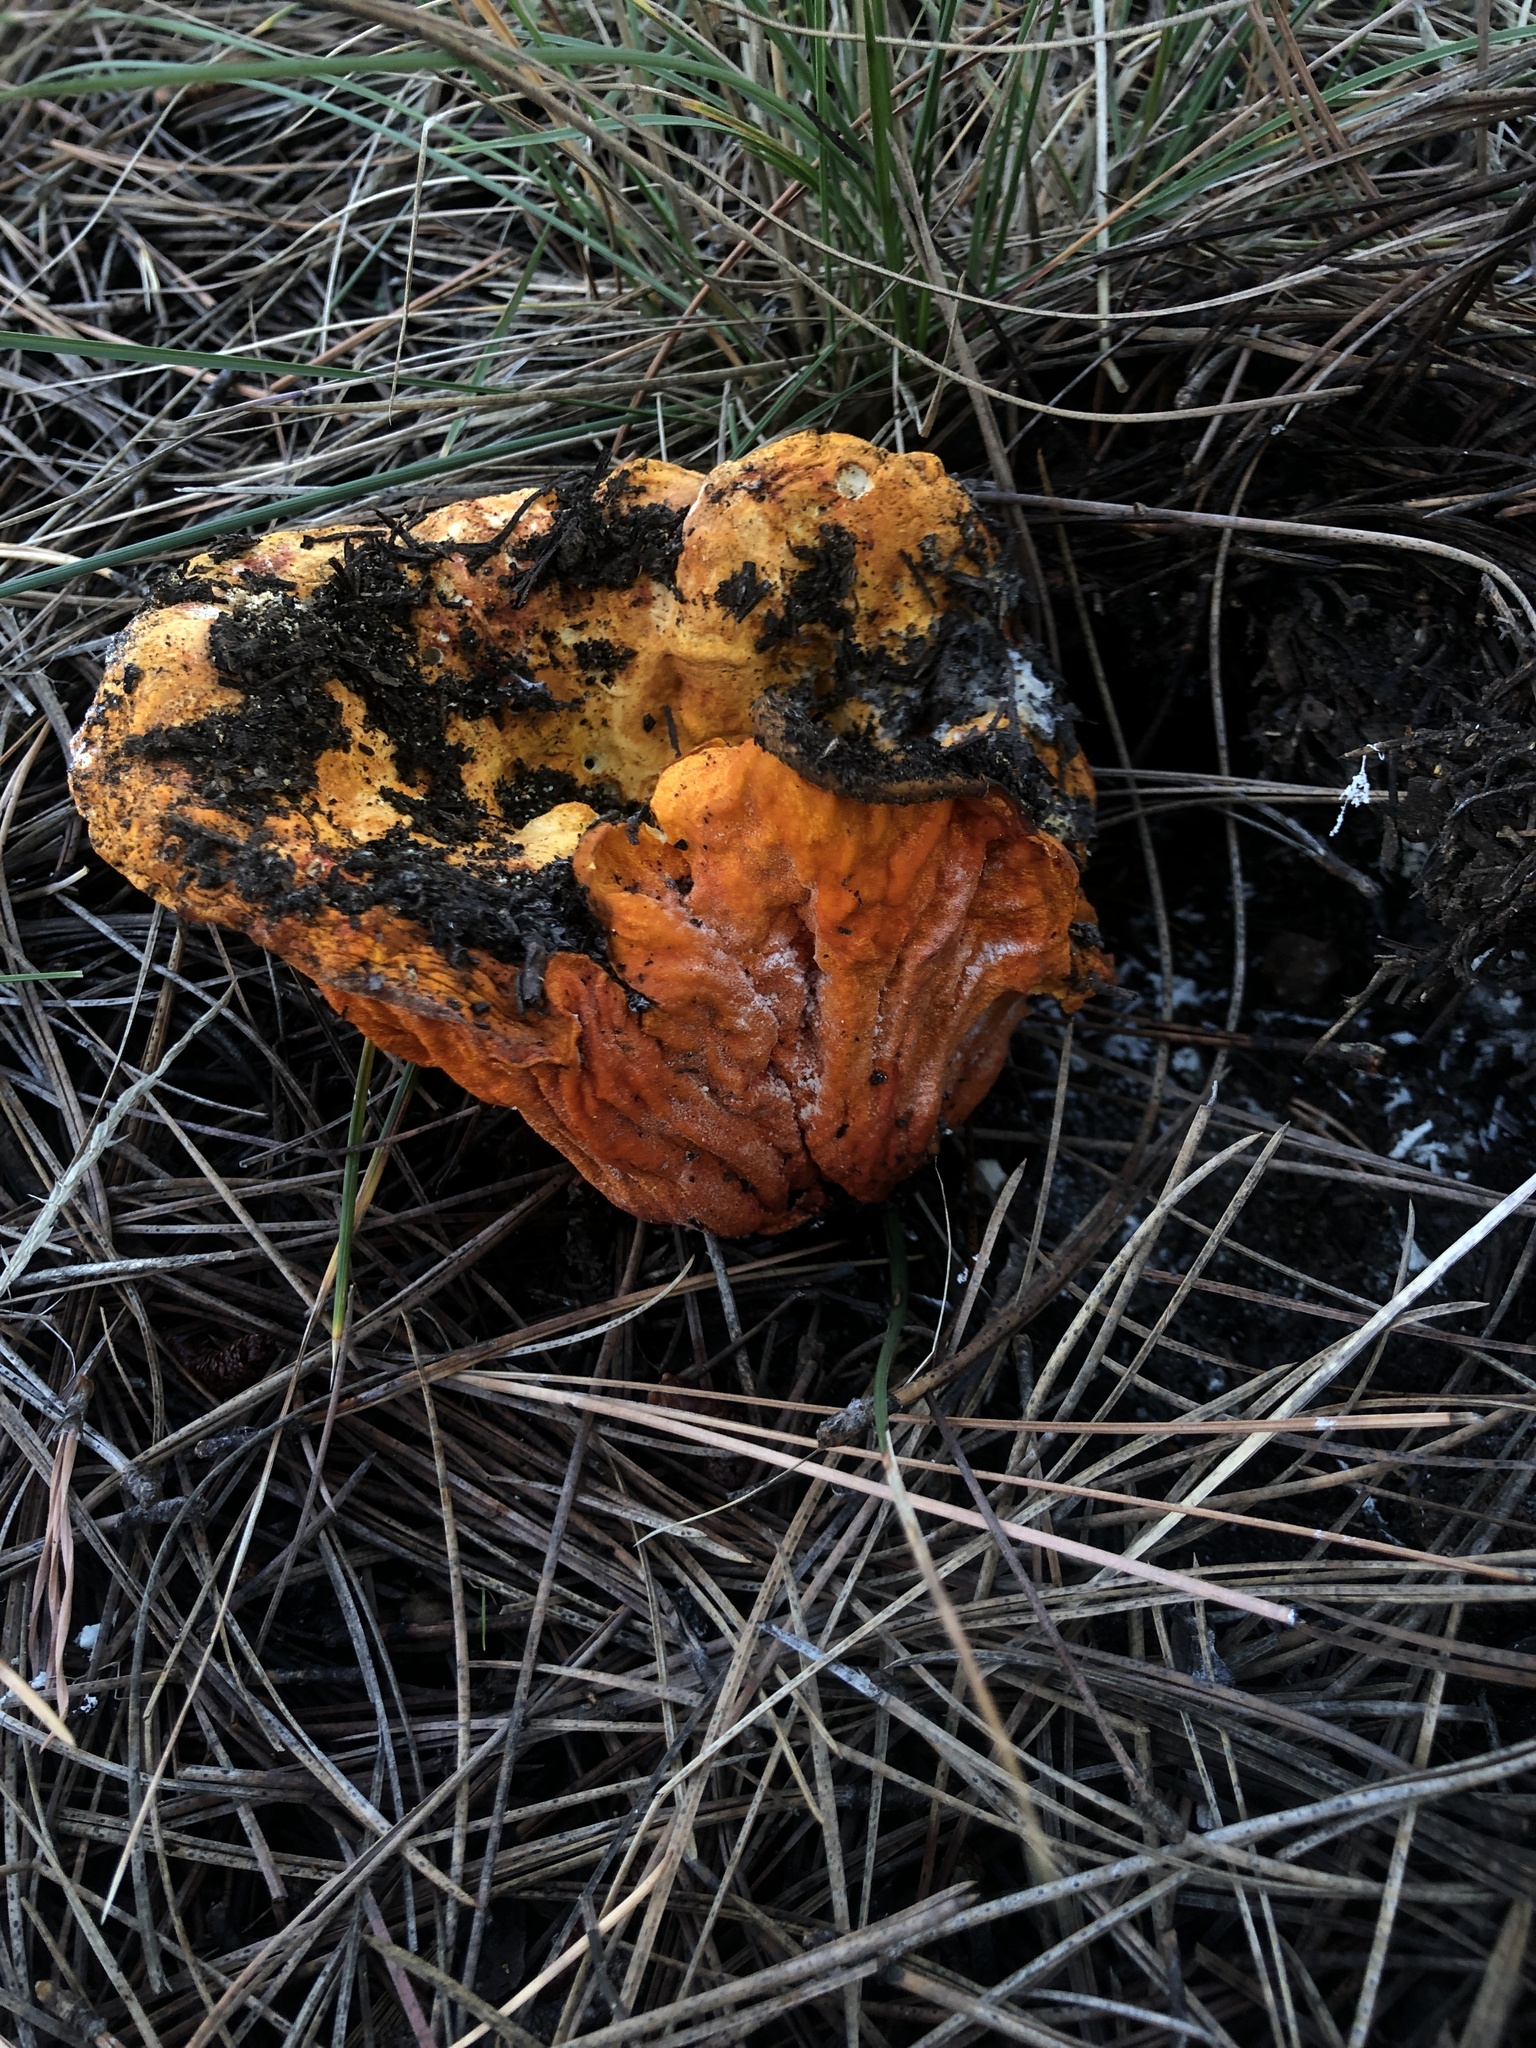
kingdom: Fungi
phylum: Ascomycota
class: Sordariomycetes
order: Hypocreales
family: Hypocreaceae
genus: Hypomyces
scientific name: Hypomyces lactifluorum
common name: Lobster mushroom
